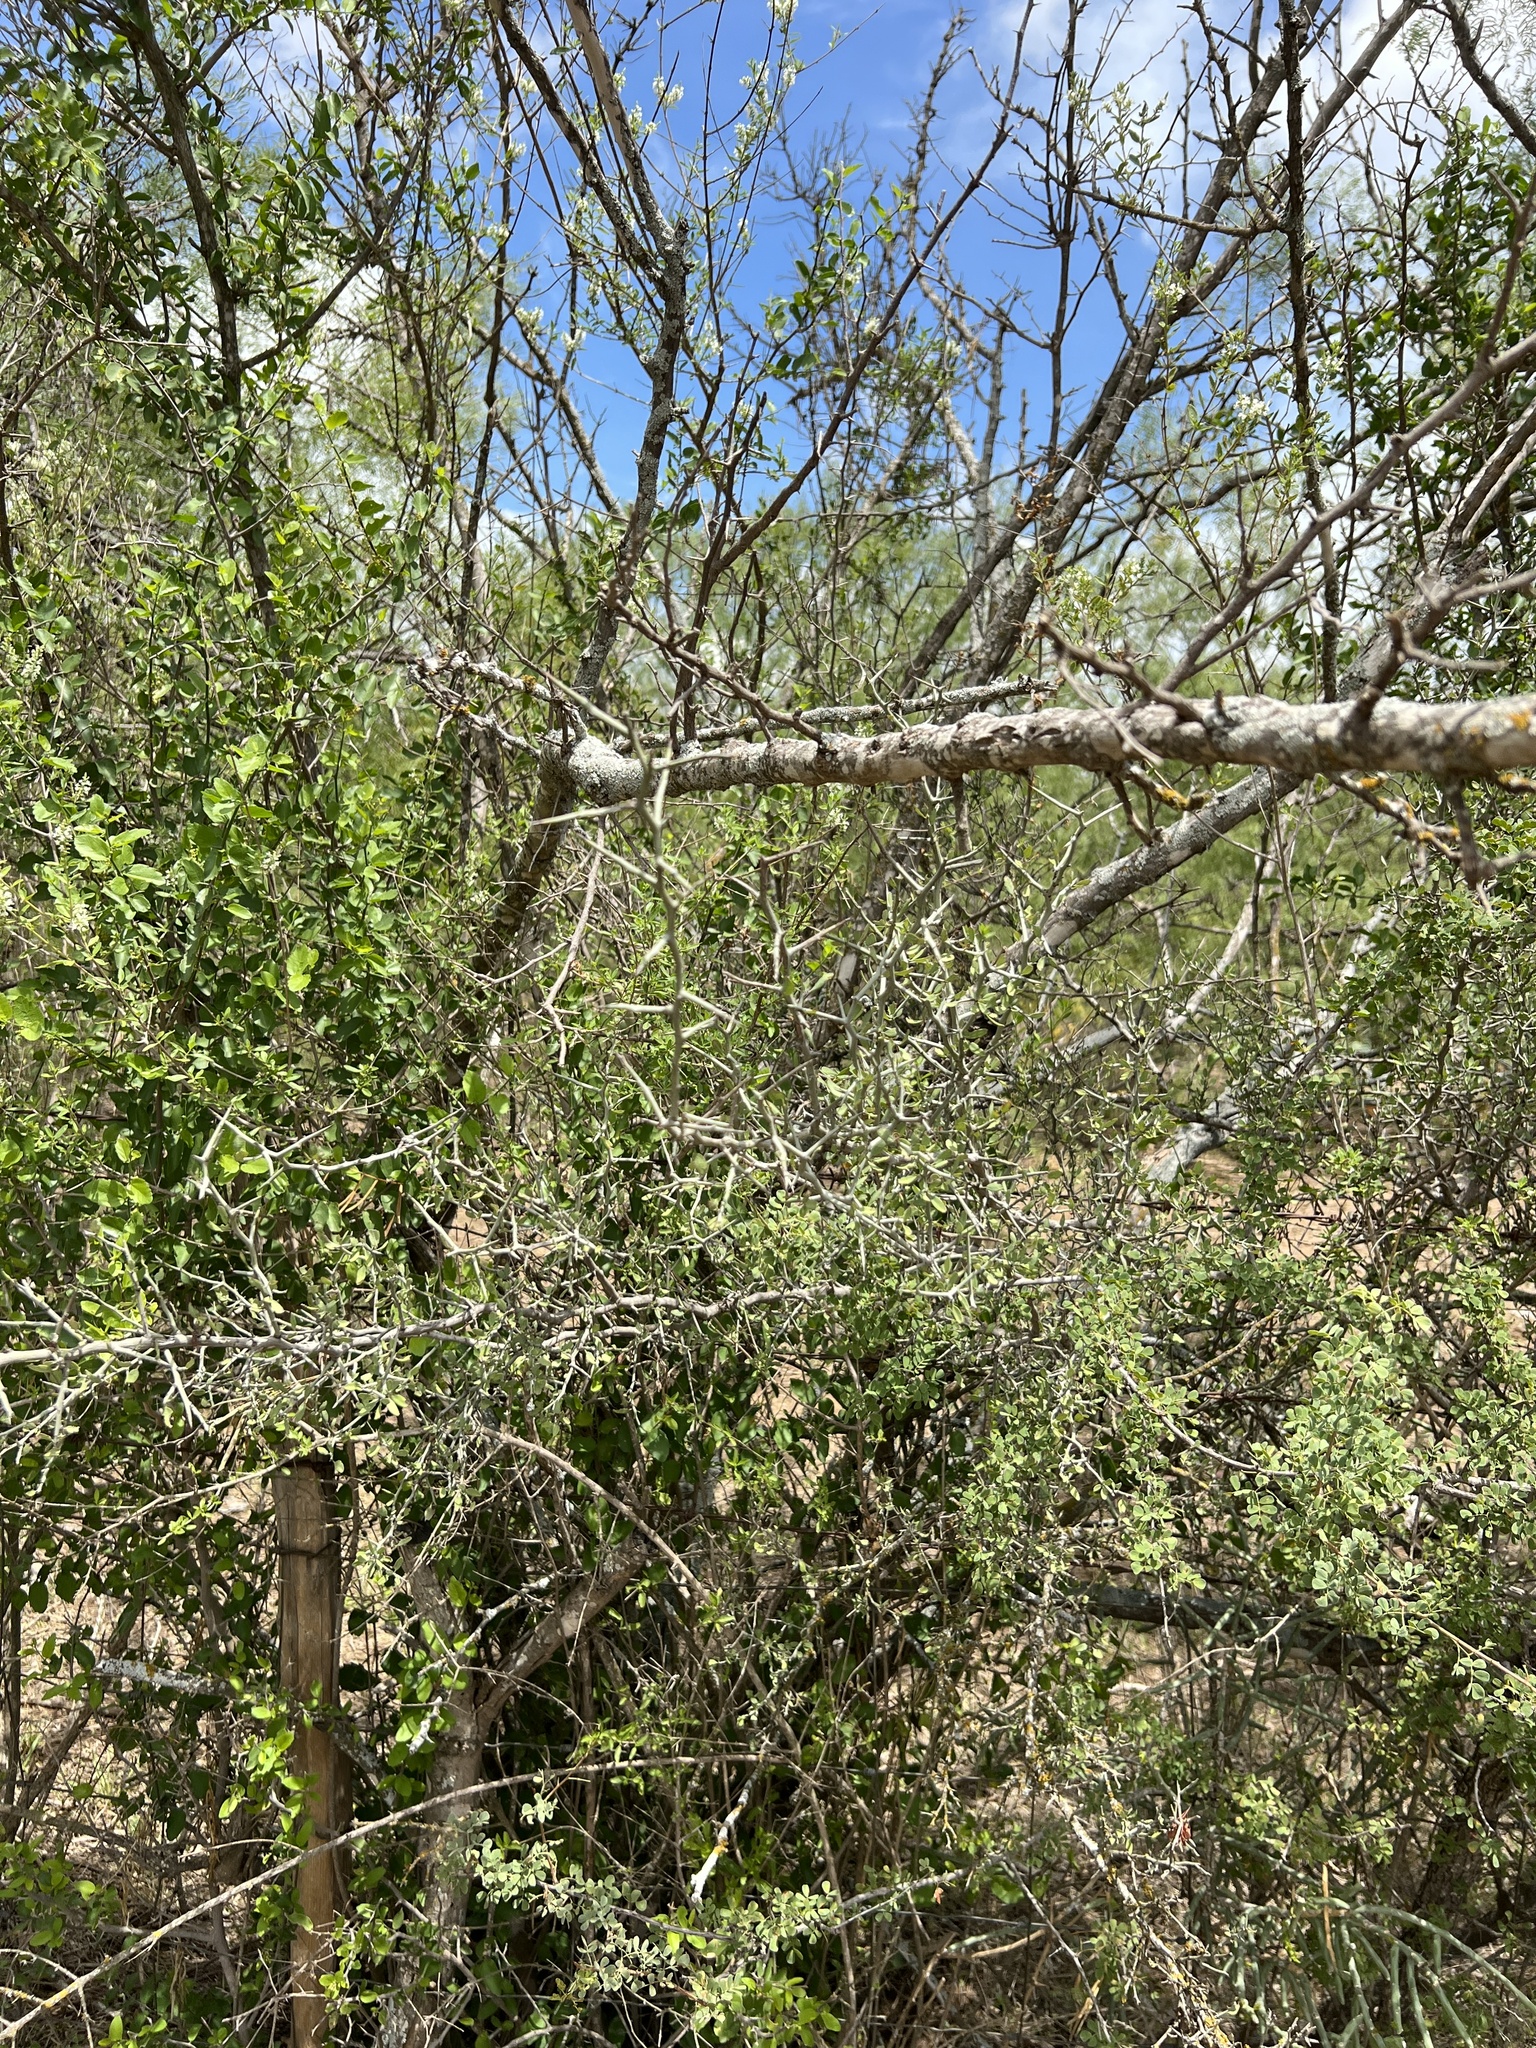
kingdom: Plantae
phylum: Tracheophyta
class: Magnoliopsida
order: Rosales
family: Rhamnaceae
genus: Sarcomphalus
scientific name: Sarcomphalus obtusifolius
